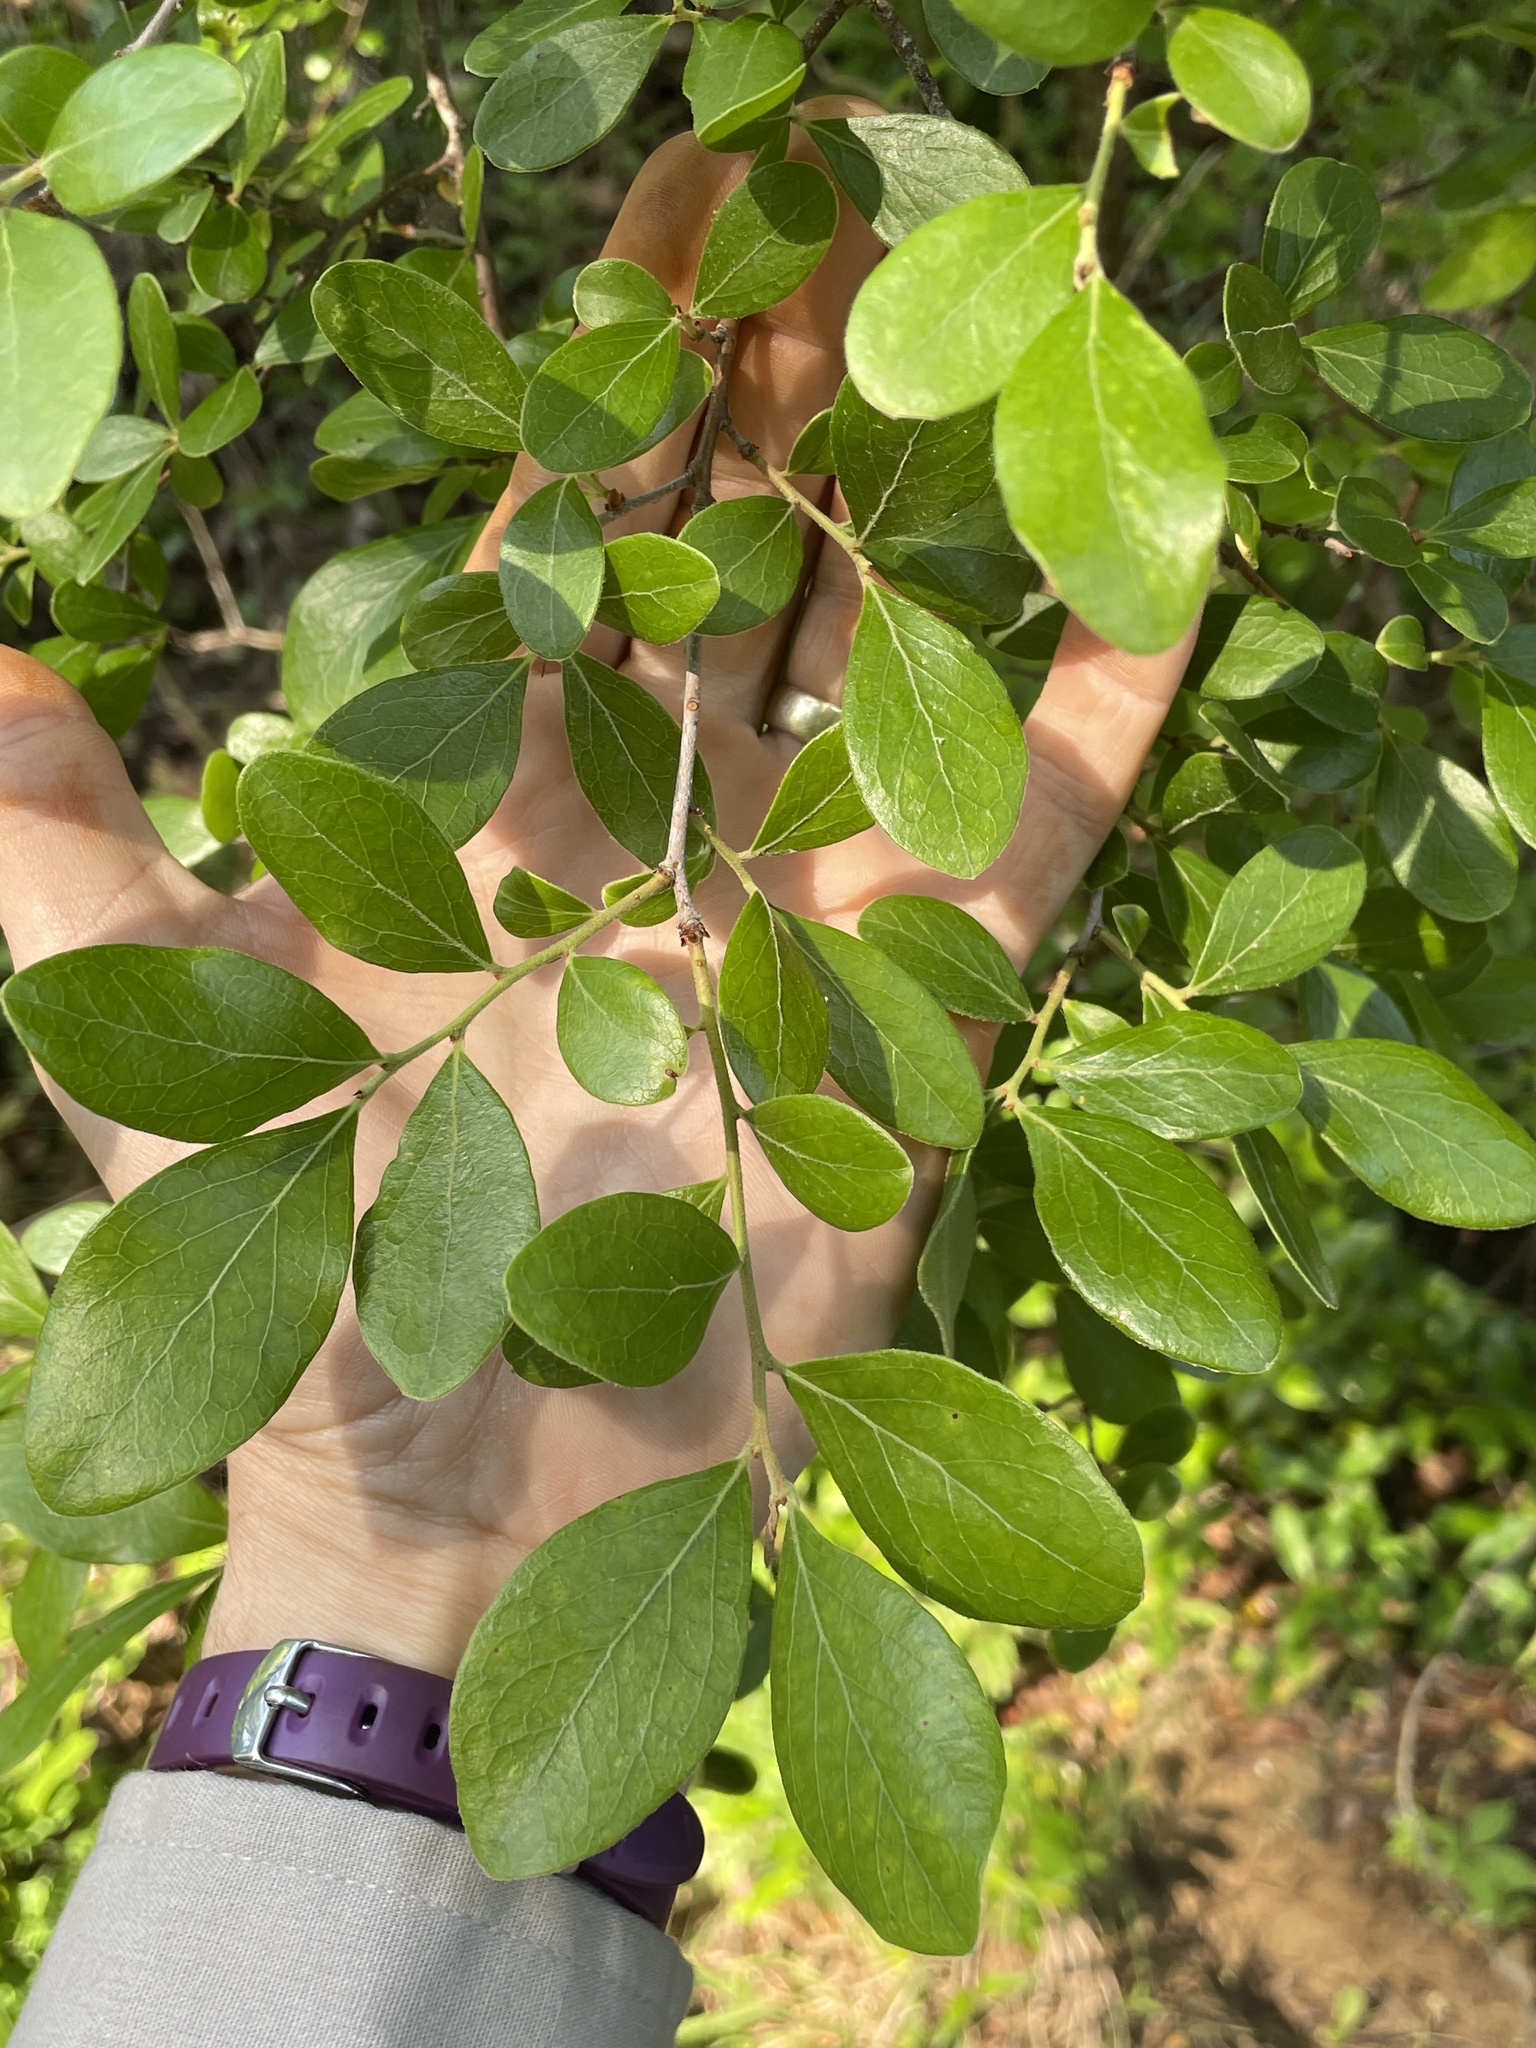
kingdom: Plantae
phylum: Tracheophyta
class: Magnoliopsida
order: Ericales
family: Ericaceae
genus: Vaccinium
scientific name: Vaccinium arboreum
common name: Farkleberry
